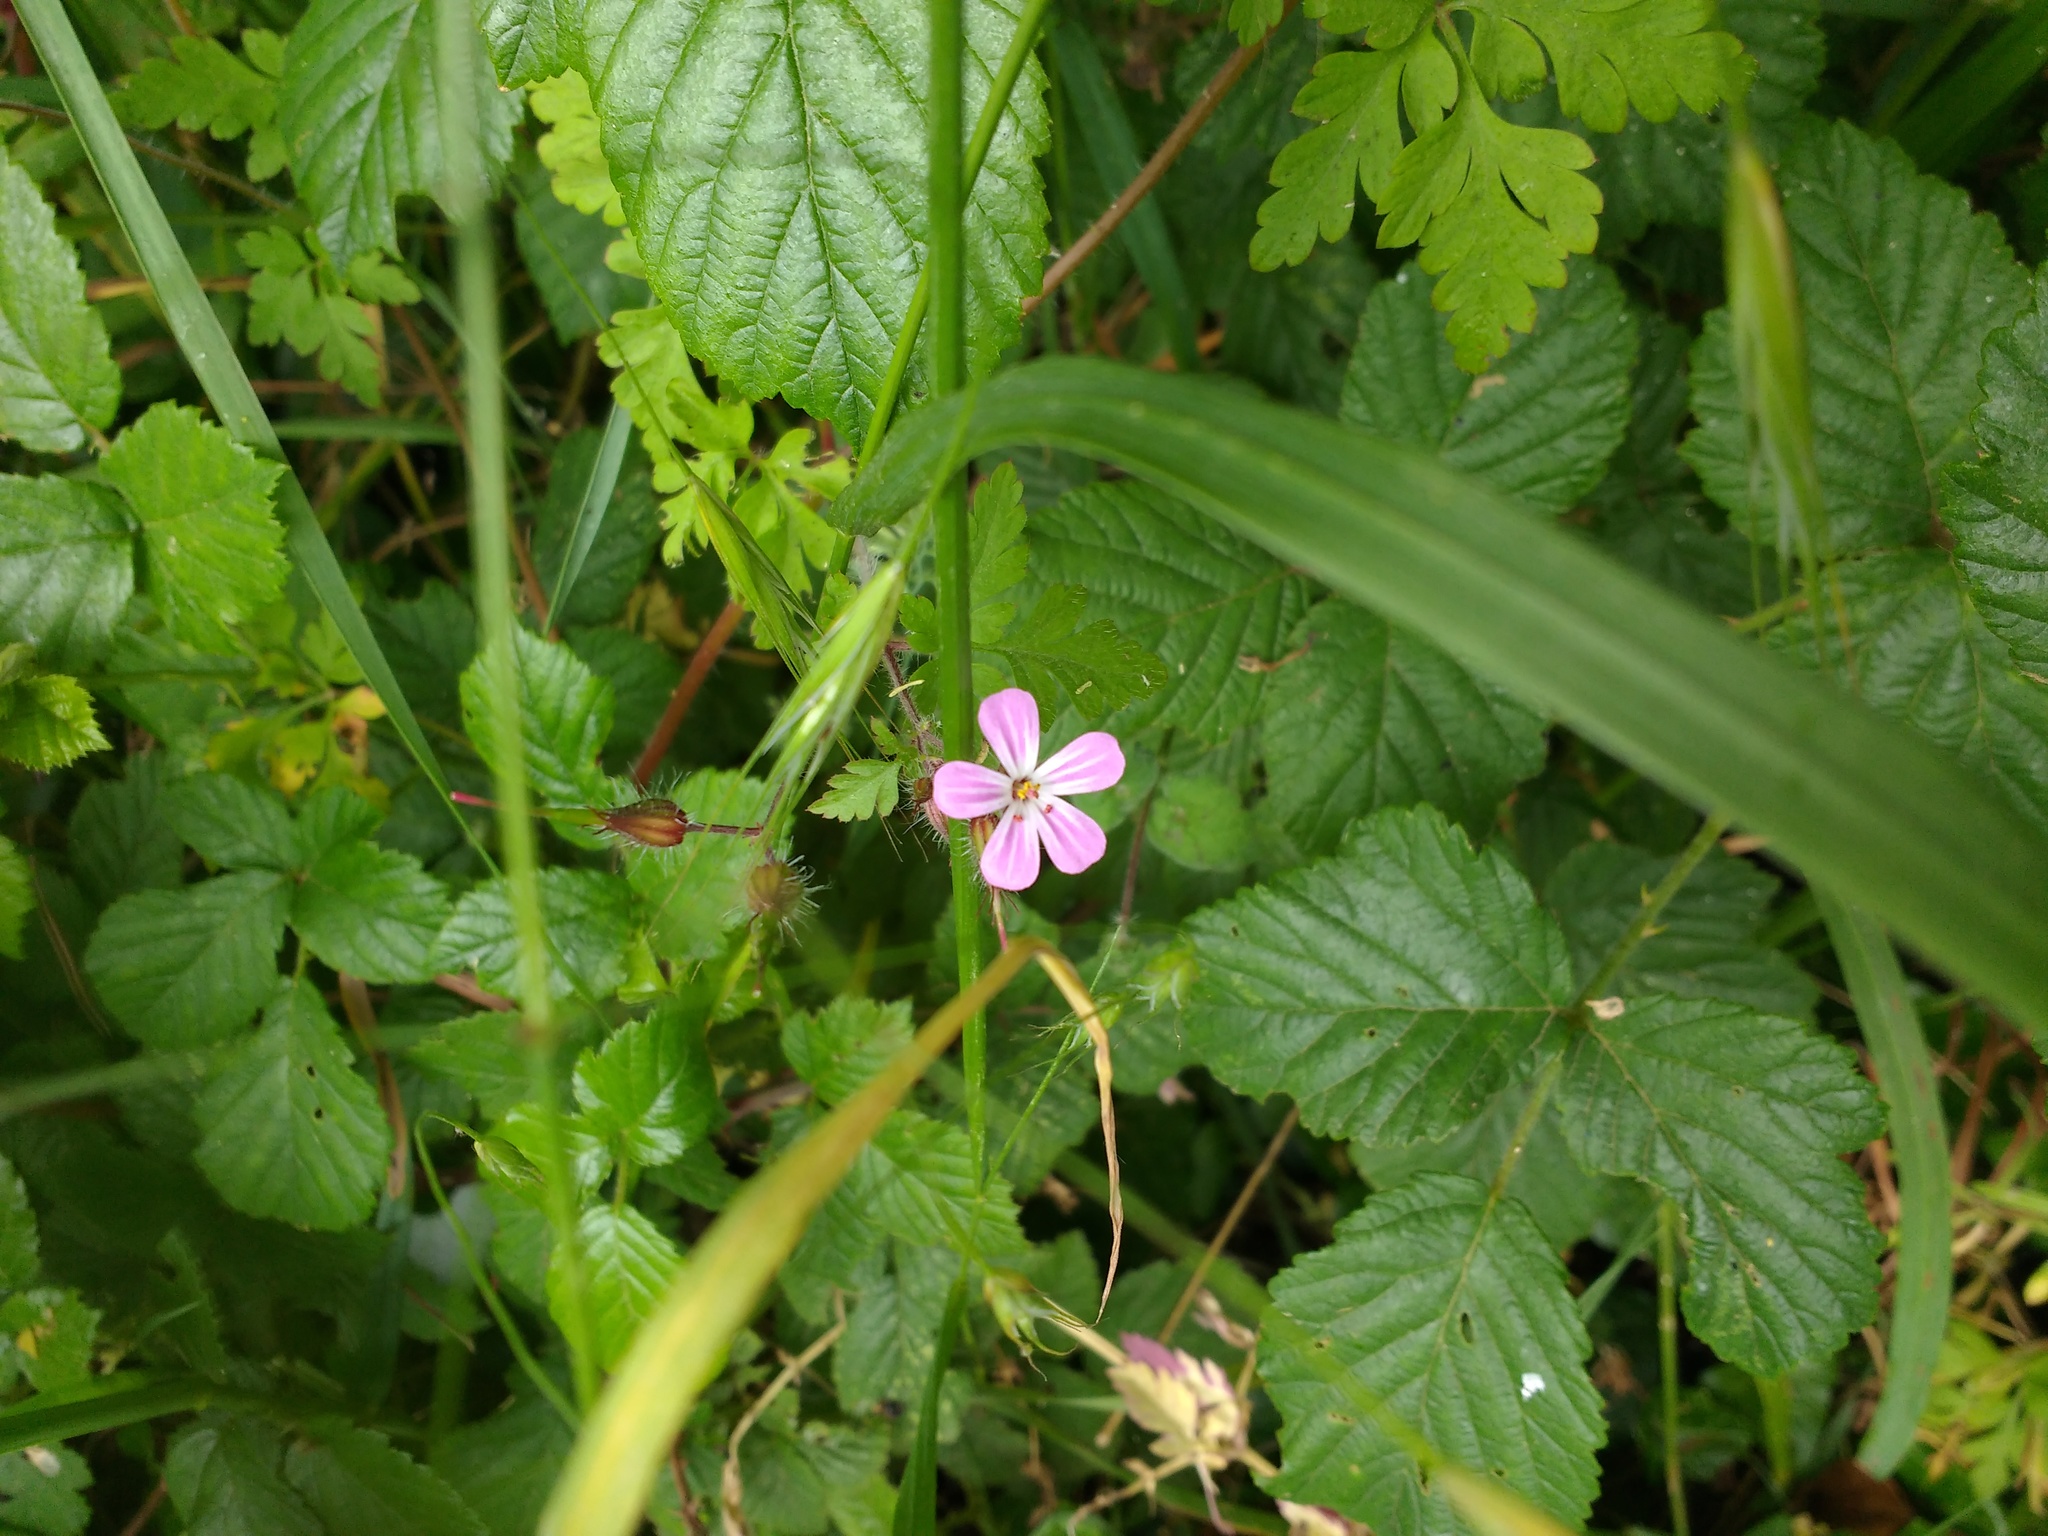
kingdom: Plantae
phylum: Tracheophyta
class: Magnoliopsida
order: Geraniales
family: Geraniaceae
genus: Geranium
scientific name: Geranium robertianum
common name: Herb-robert
